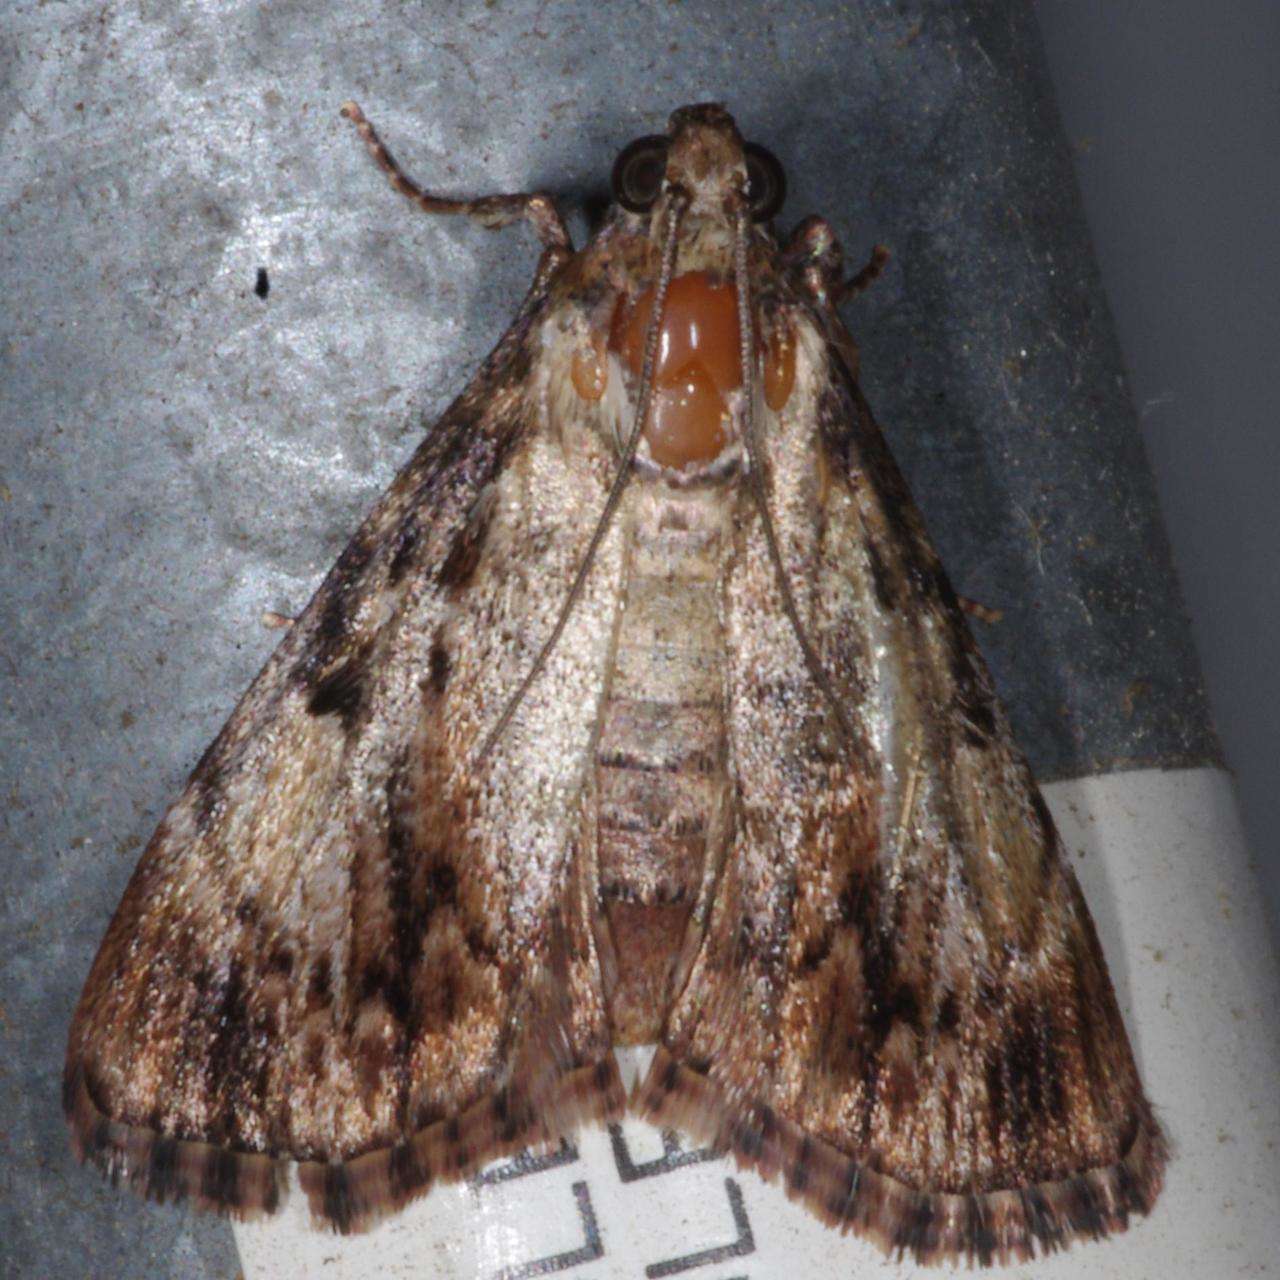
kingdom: Animalia
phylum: Arthropoda
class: Insecta
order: Lepidoptera
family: Pyralidae
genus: Salma
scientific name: Salma cinerascens
